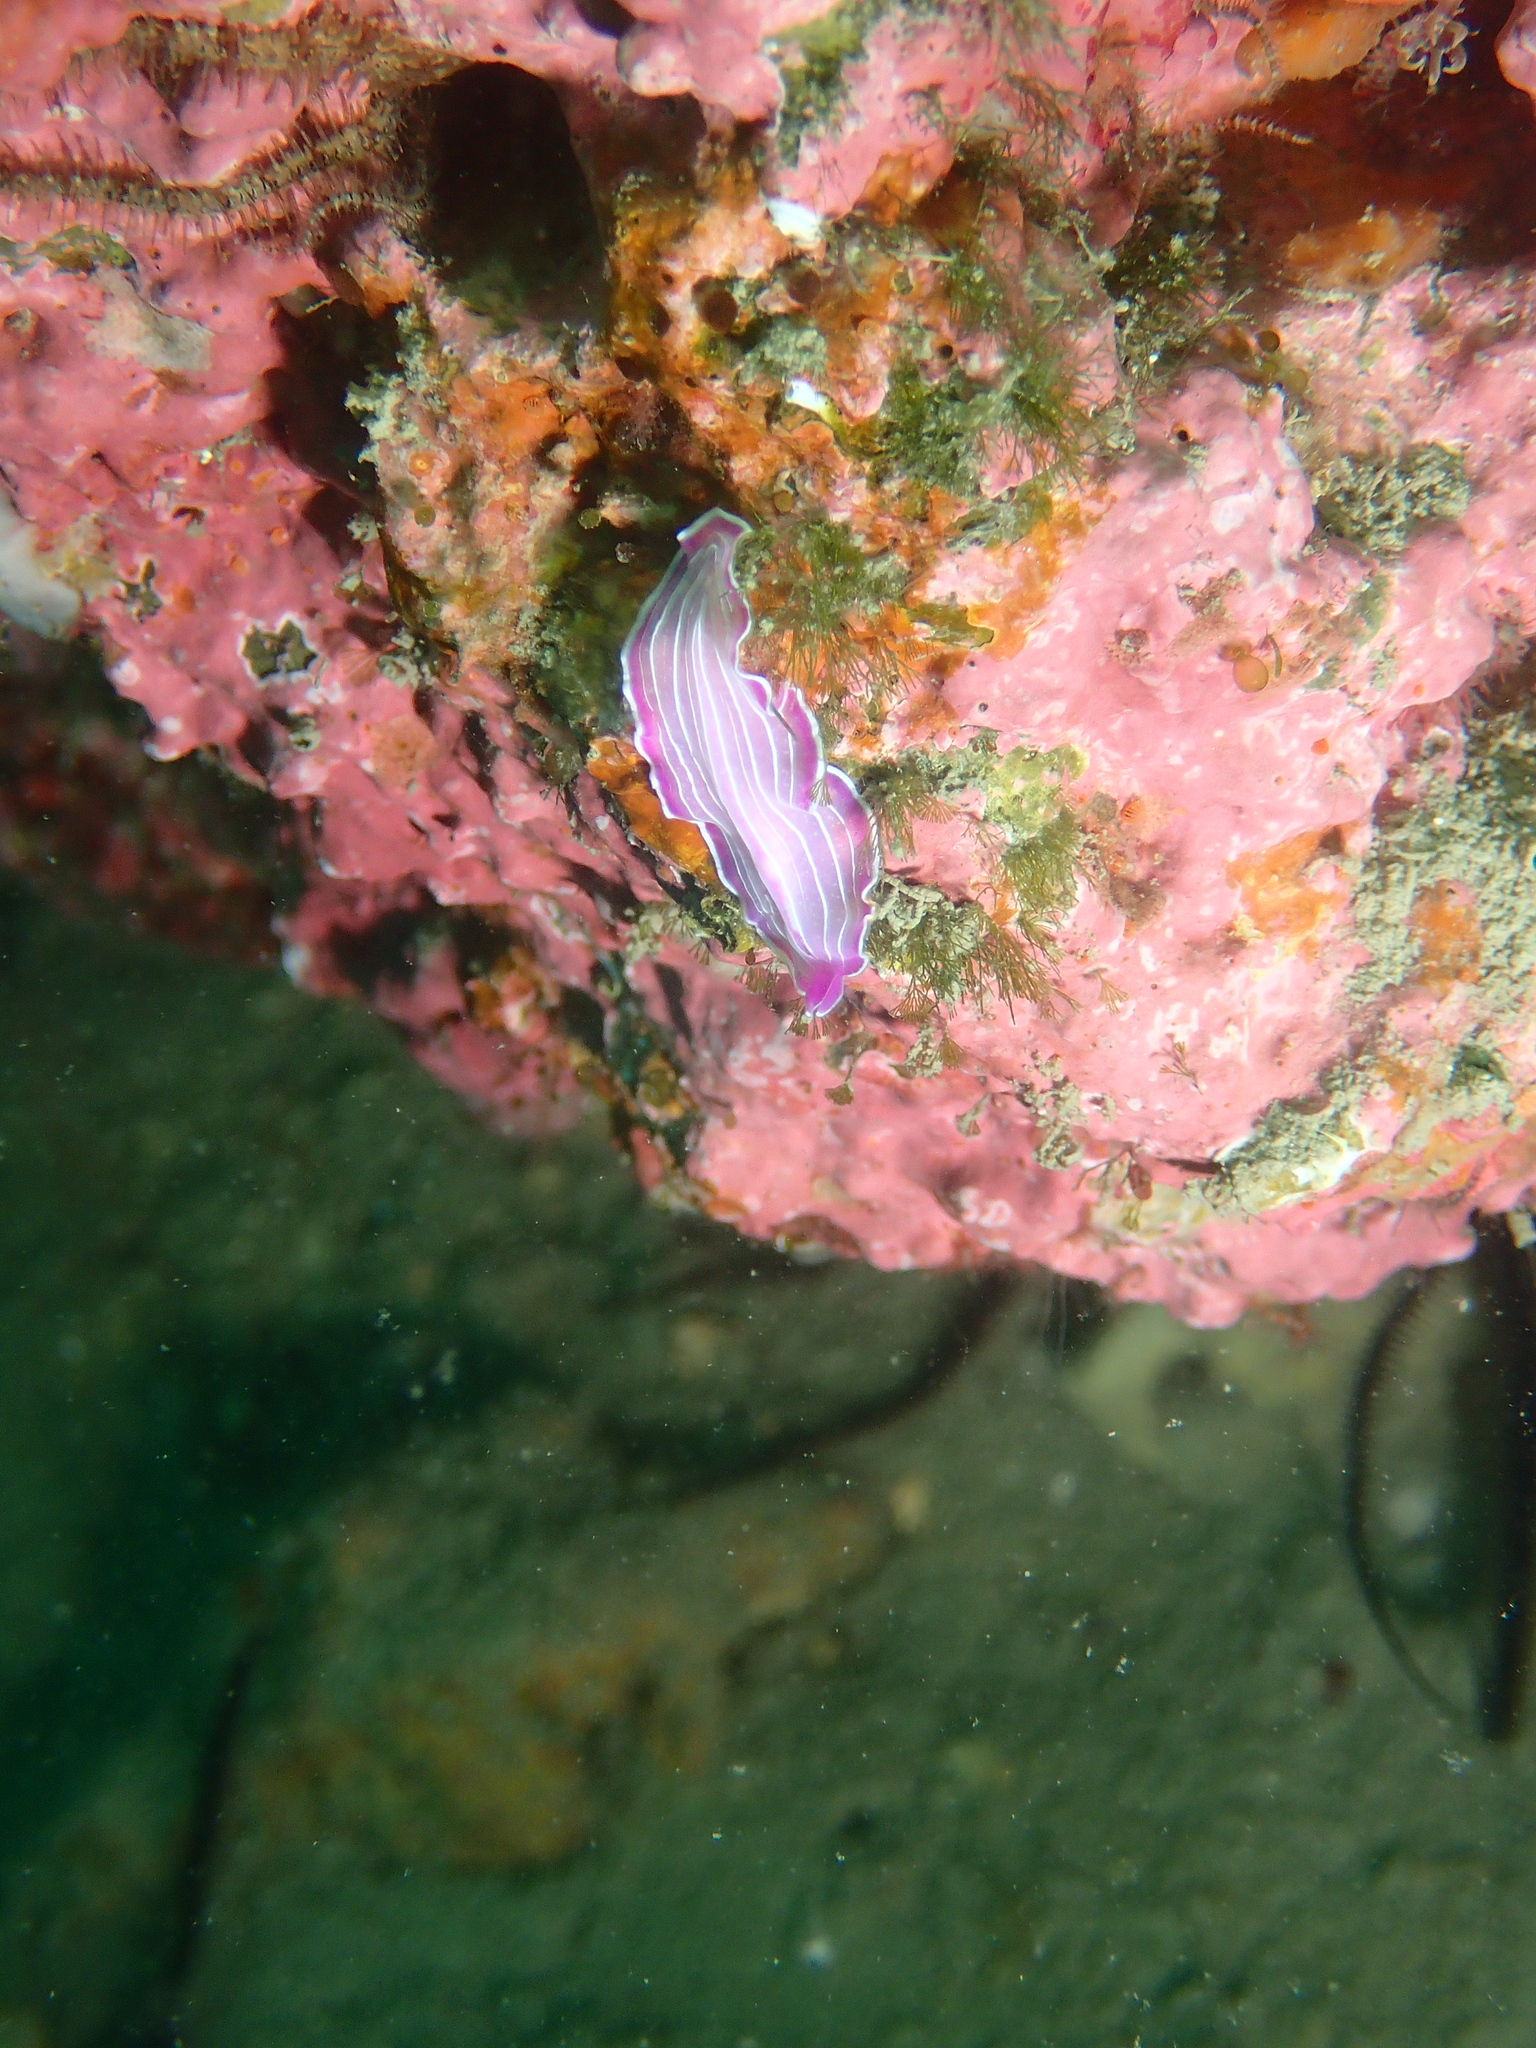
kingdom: Animalia
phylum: Platyhelminthes
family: Euryleptidae
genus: Prostheceraeus
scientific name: Prostheceraeus roseus
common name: Pink flatworm
